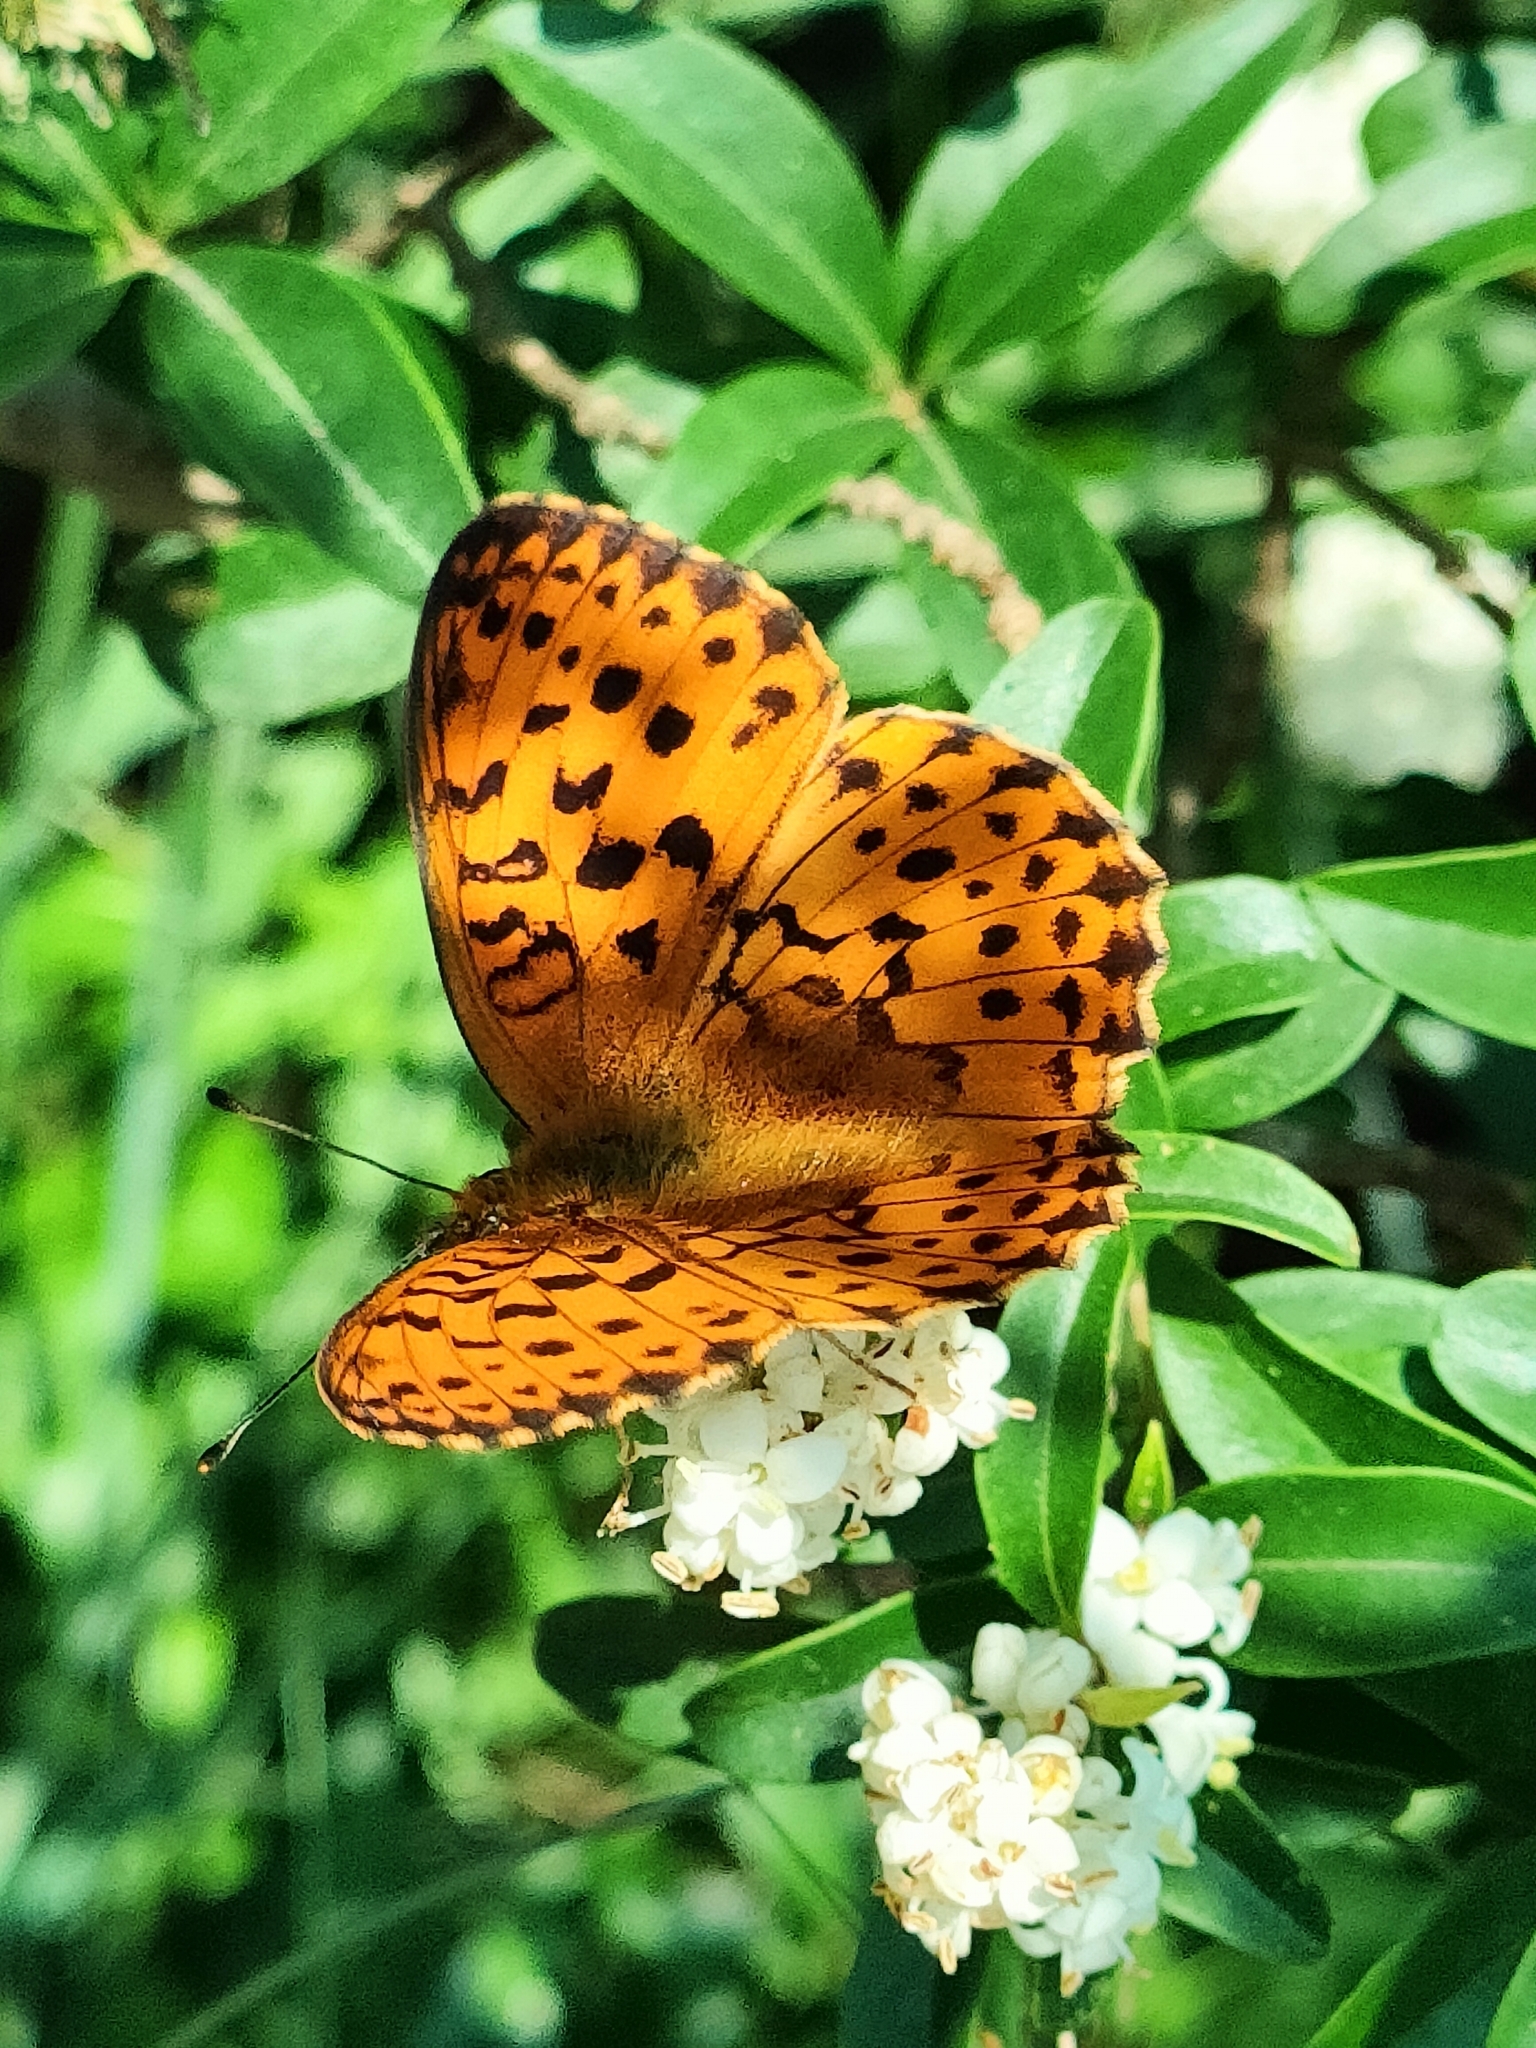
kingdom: Animalia
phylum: Arthropoda
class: Insecta
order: Lepidoptera
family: Nymphalidae
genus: Brenthis
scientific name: Brenthis daphne
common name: Marbled fritillary
